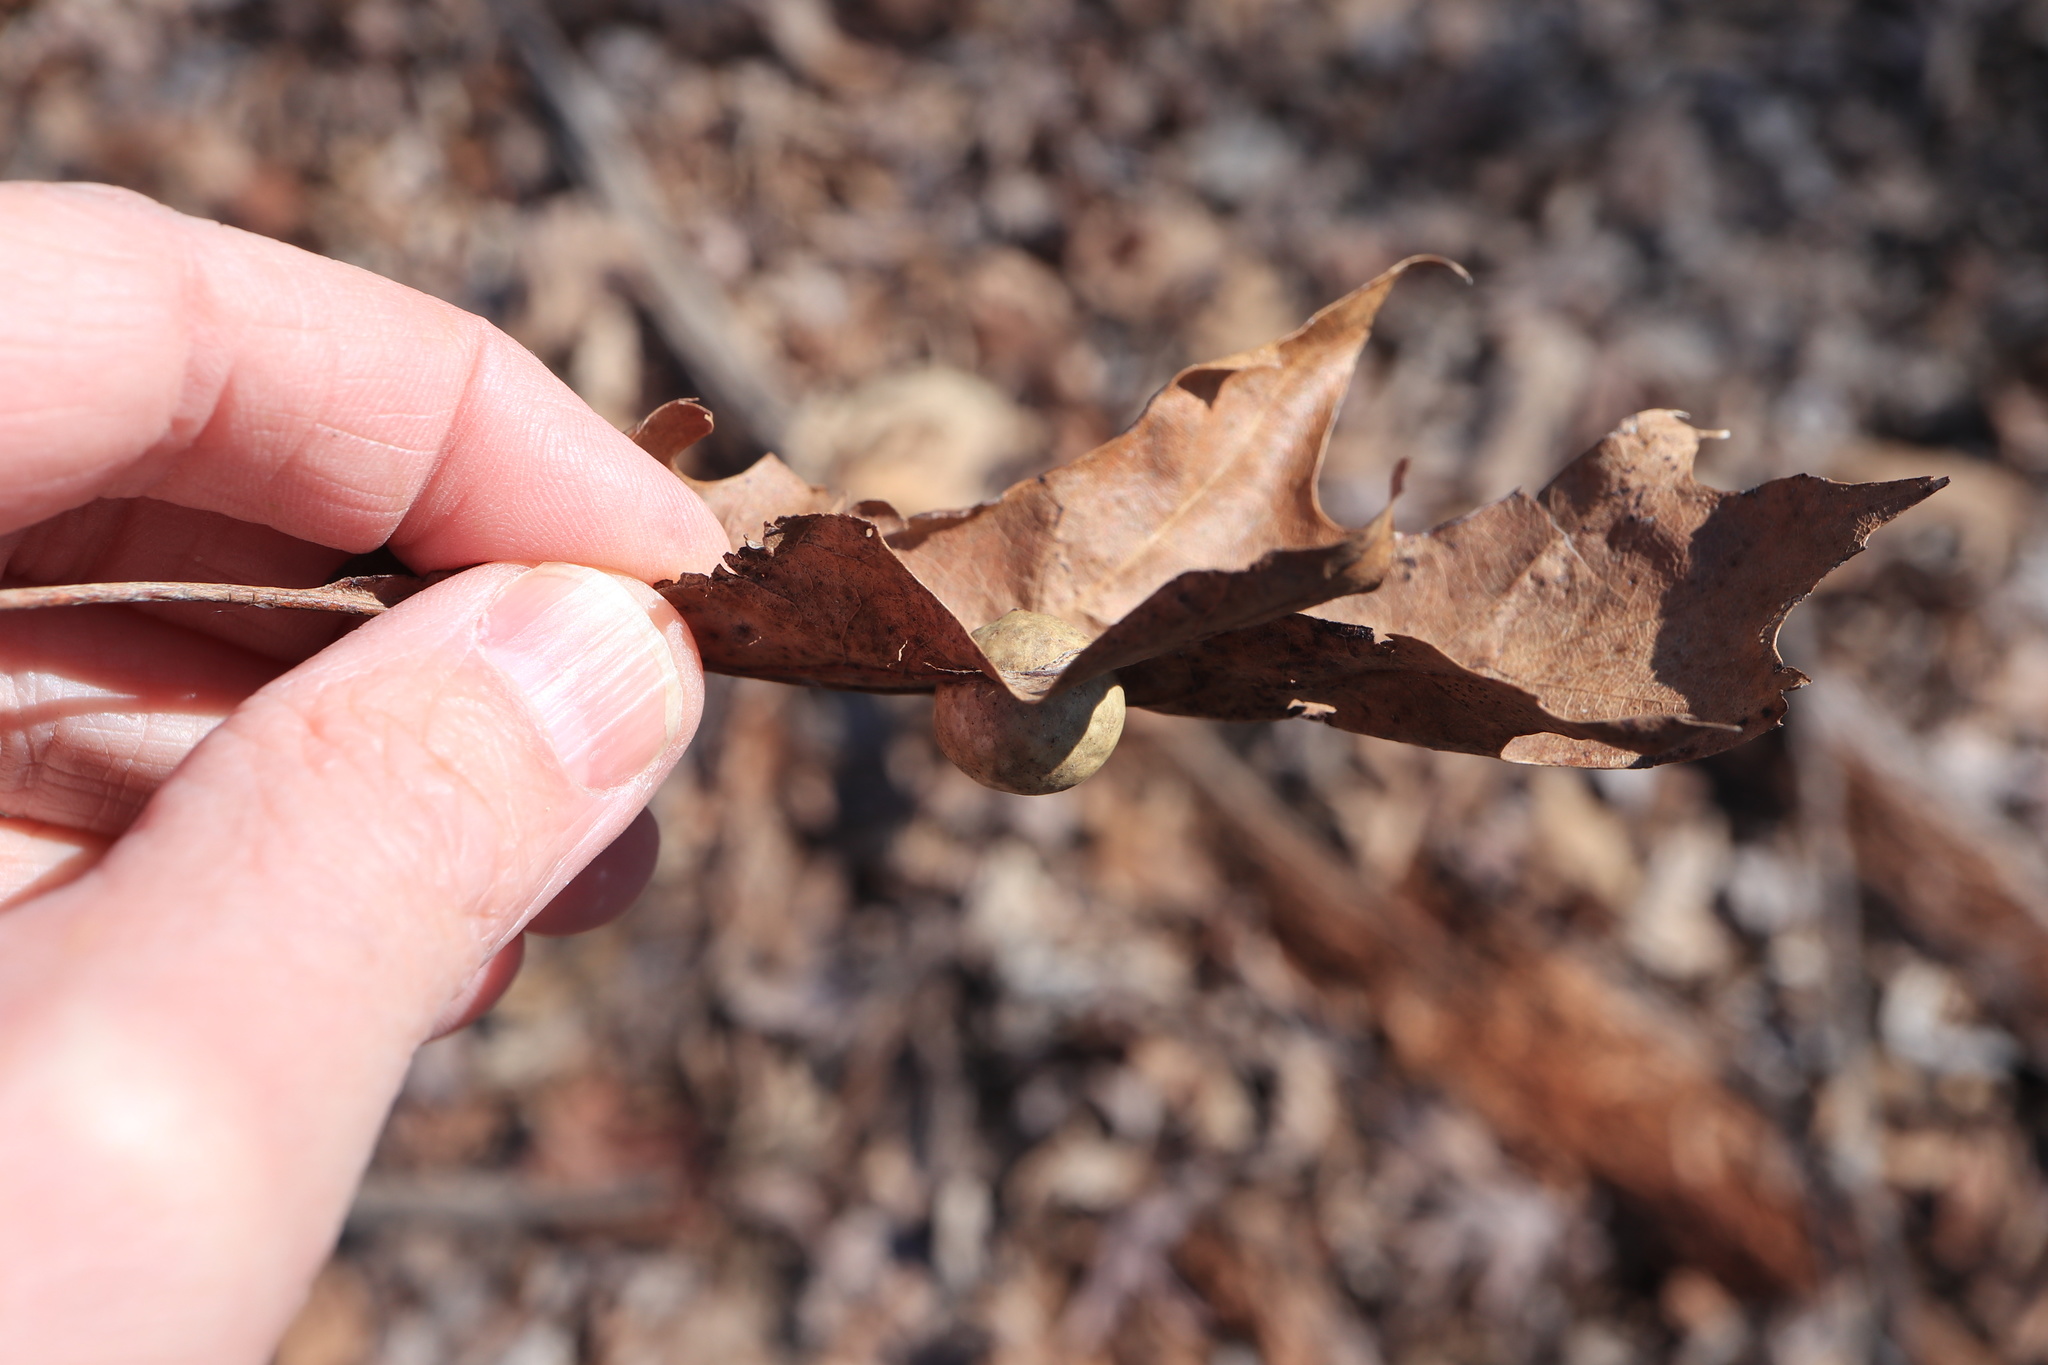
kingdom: Animalia
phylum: Arthropoda
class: Insecta
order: Hymenoptera
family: Cynipidae
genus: Amphibolips
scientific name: Amphibolips
